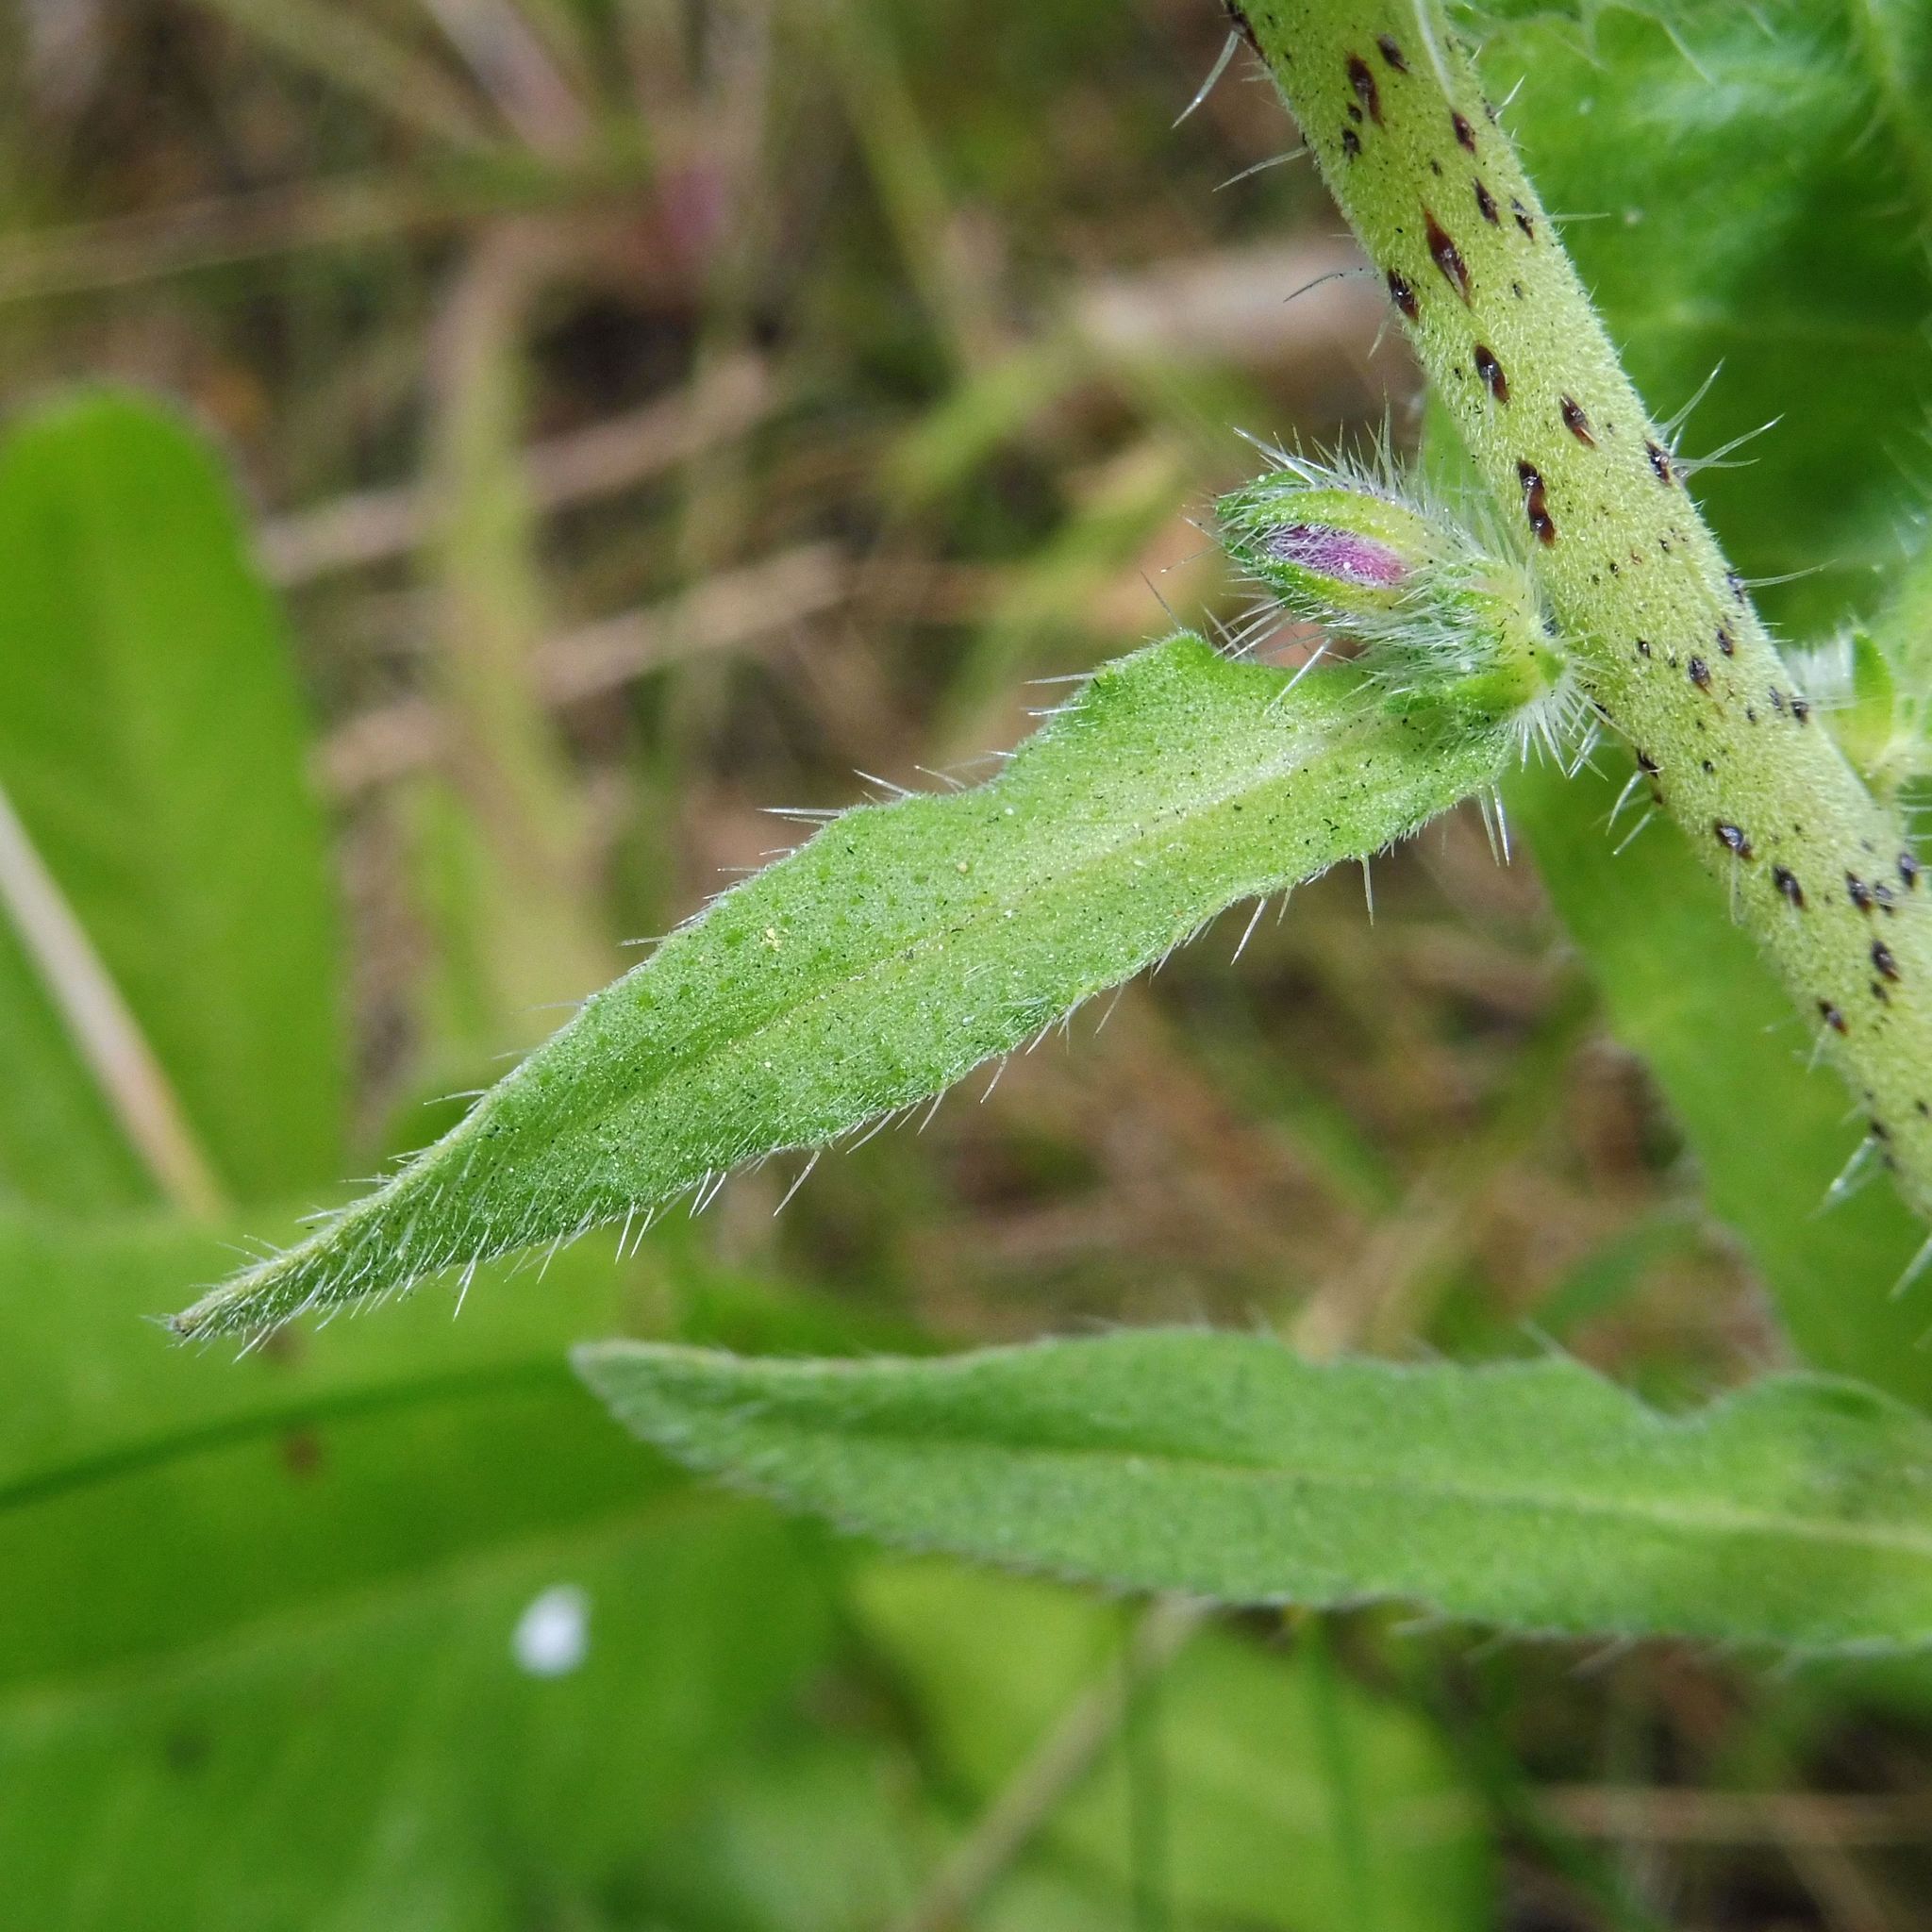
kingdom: Plantae
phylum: Tracheophyta
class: Magnoliopsida
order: Boraginales
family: Boraginaceae
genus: Echium
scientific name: Echium vulgare
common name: Common viper's bugloss
